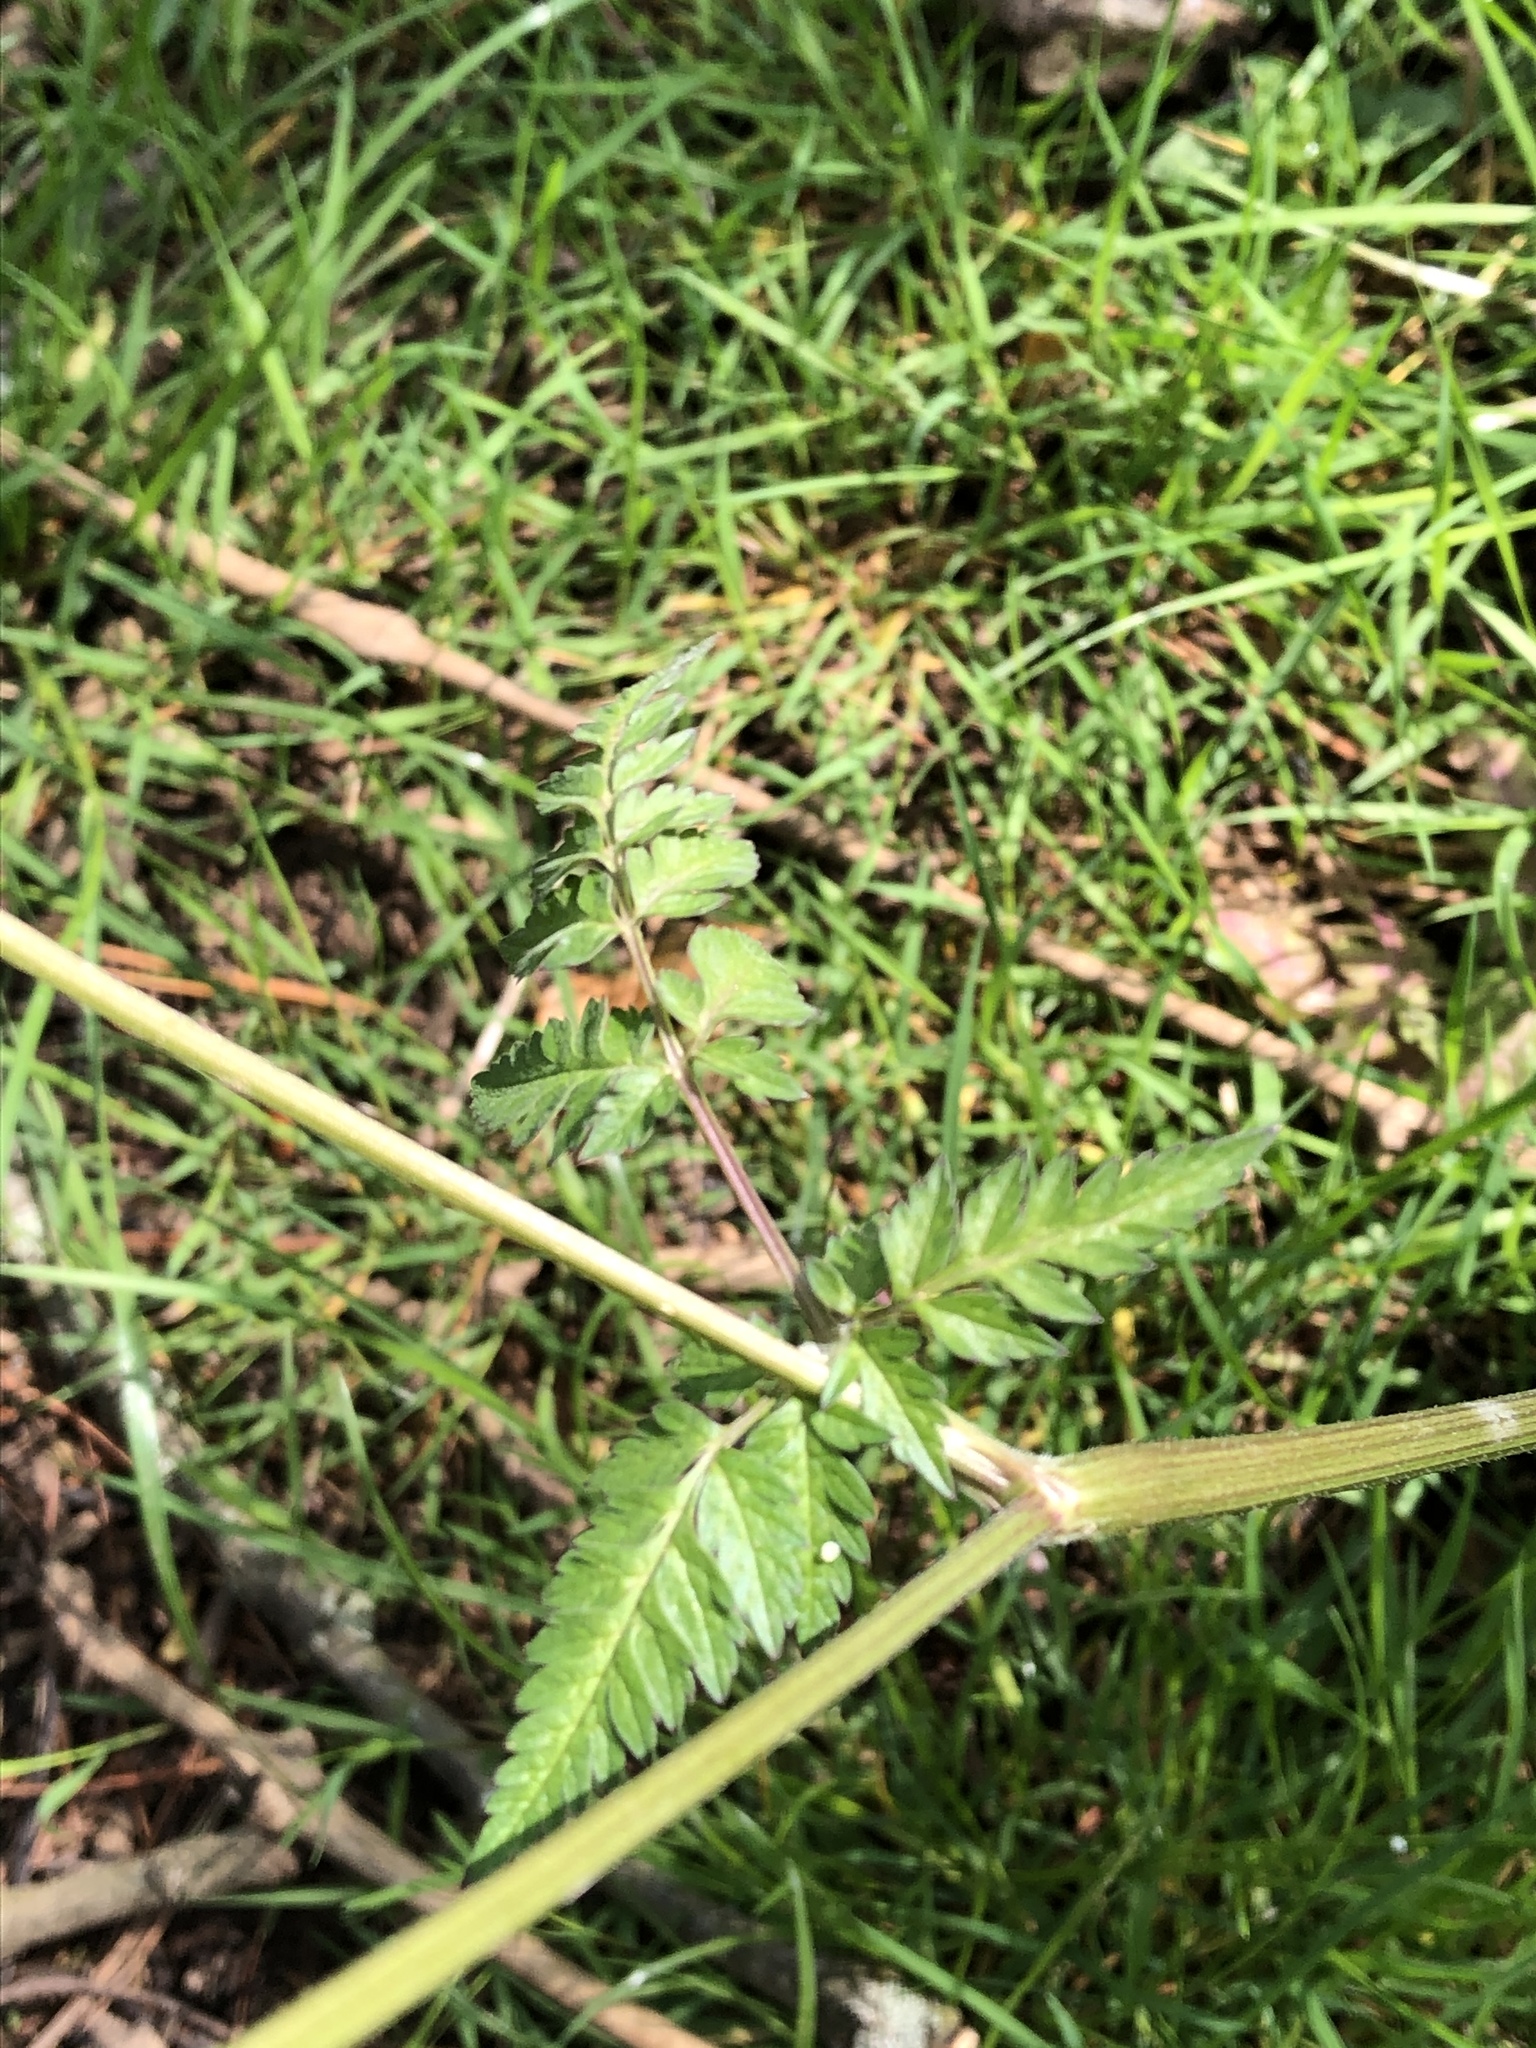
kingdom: Plantae
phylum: Tracheophyta
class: Magnoliopsida
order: Apiales
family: Apiaceae
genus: Anthriscus
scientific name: Anthriscus sylvestris
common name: Cow parsley
